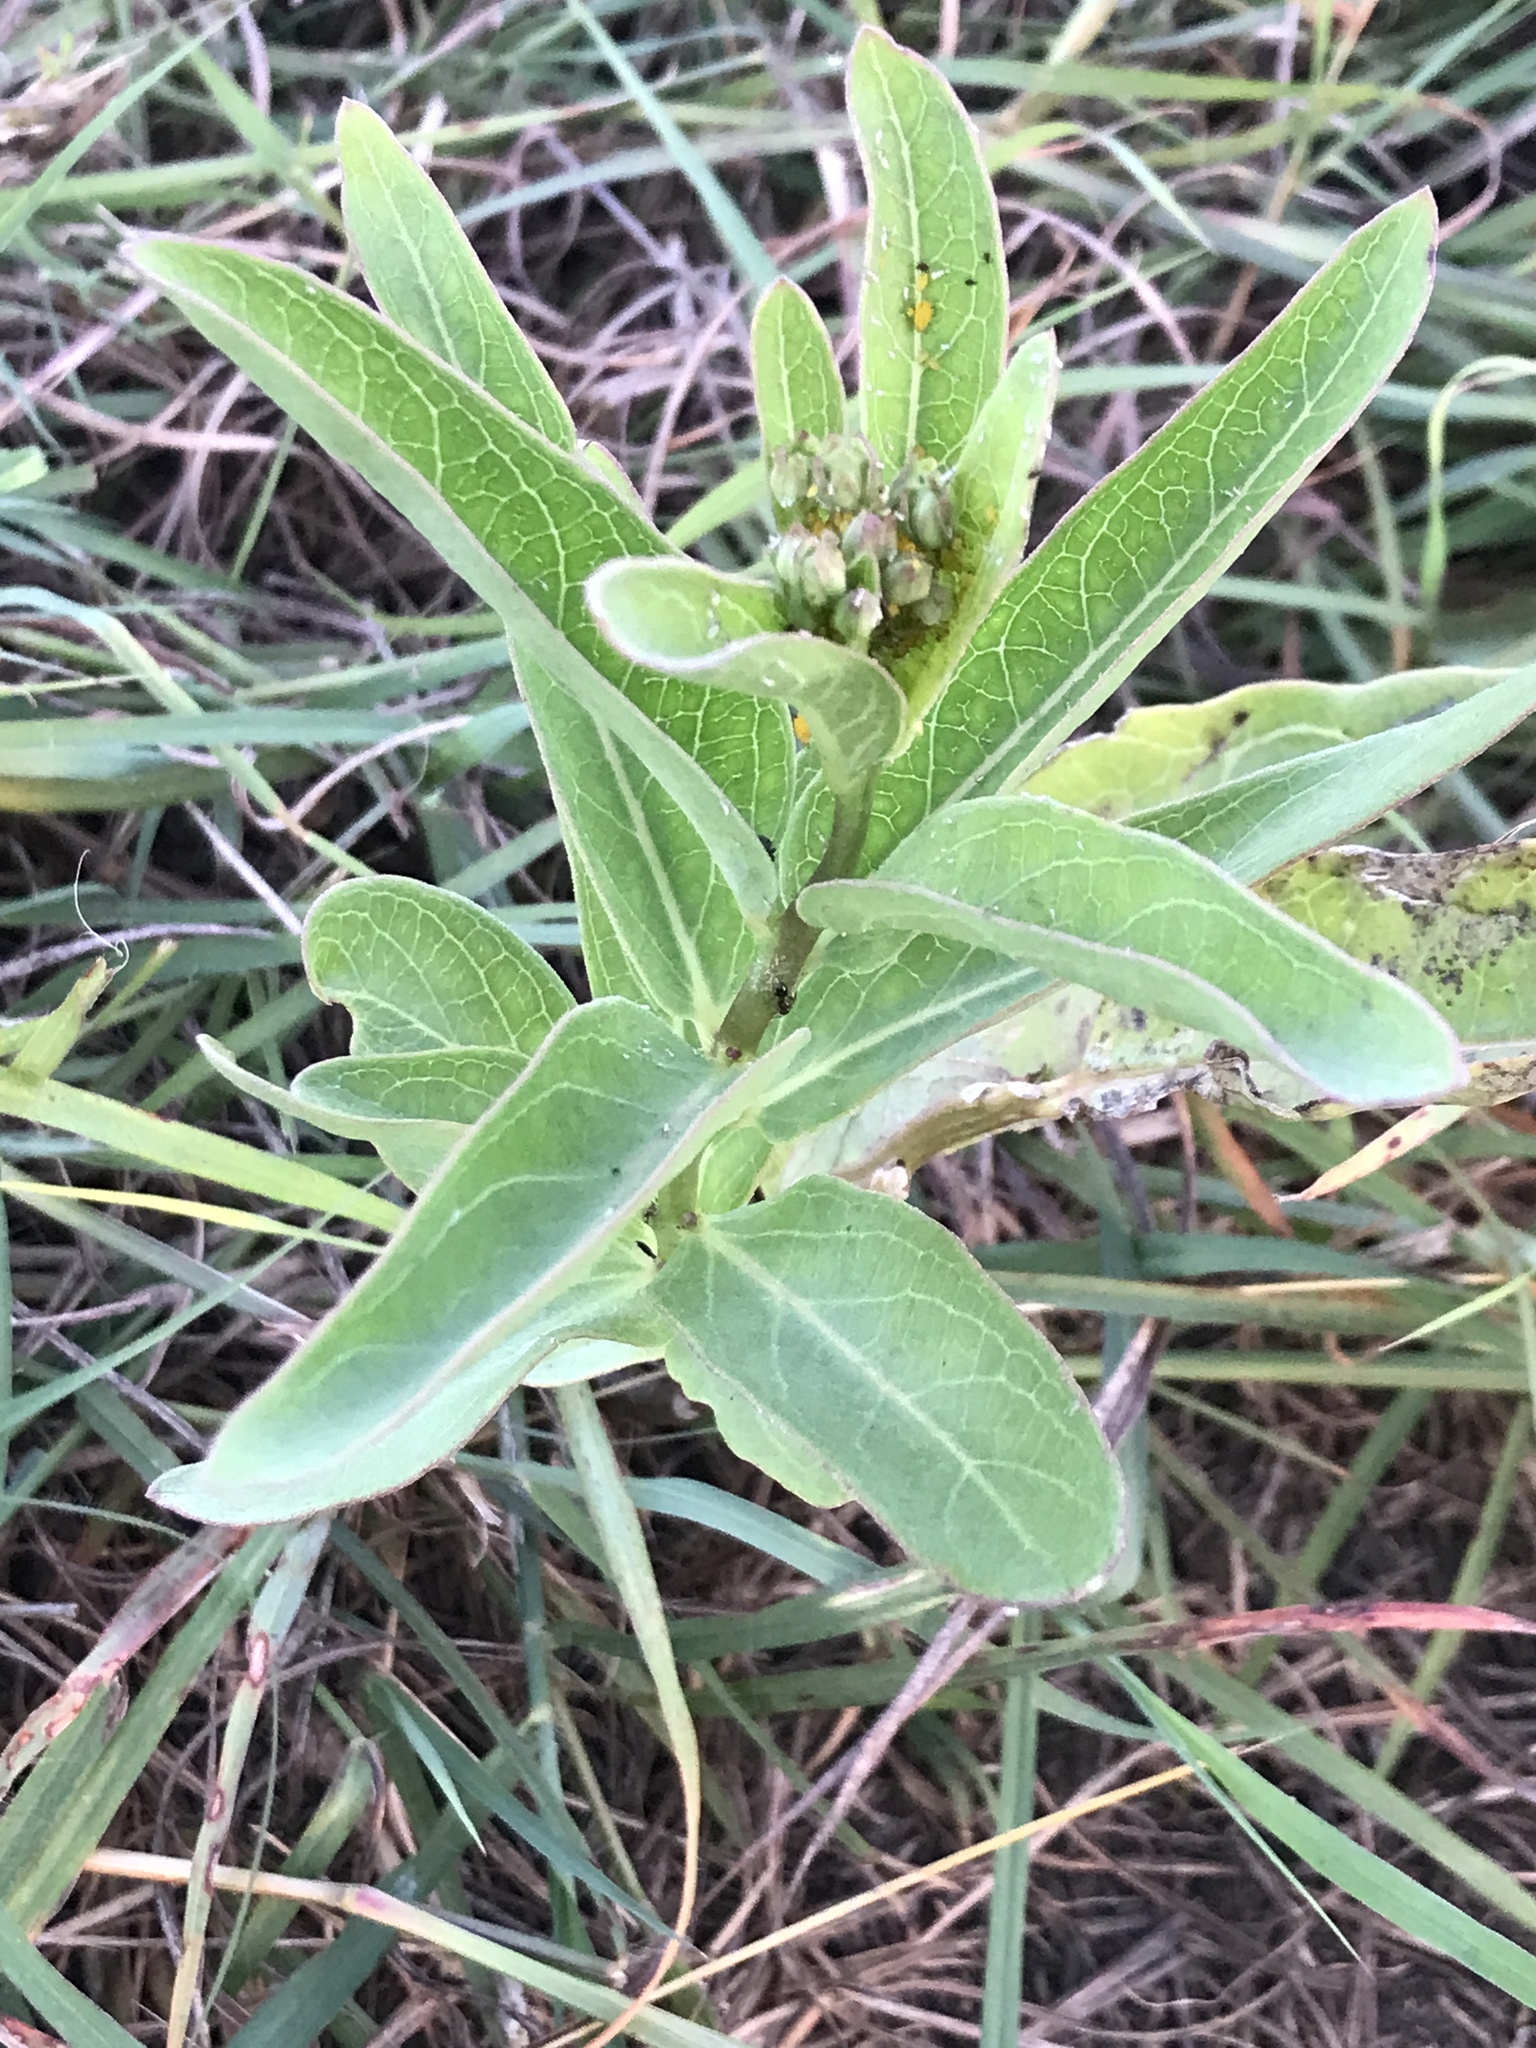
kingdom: Plantae
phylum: Tracheophyta
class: Magnoliopsida
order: Gentianales
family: Apocynaceae
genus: Asclepias
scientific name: Asclepias viridis
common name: Antelope-horns
